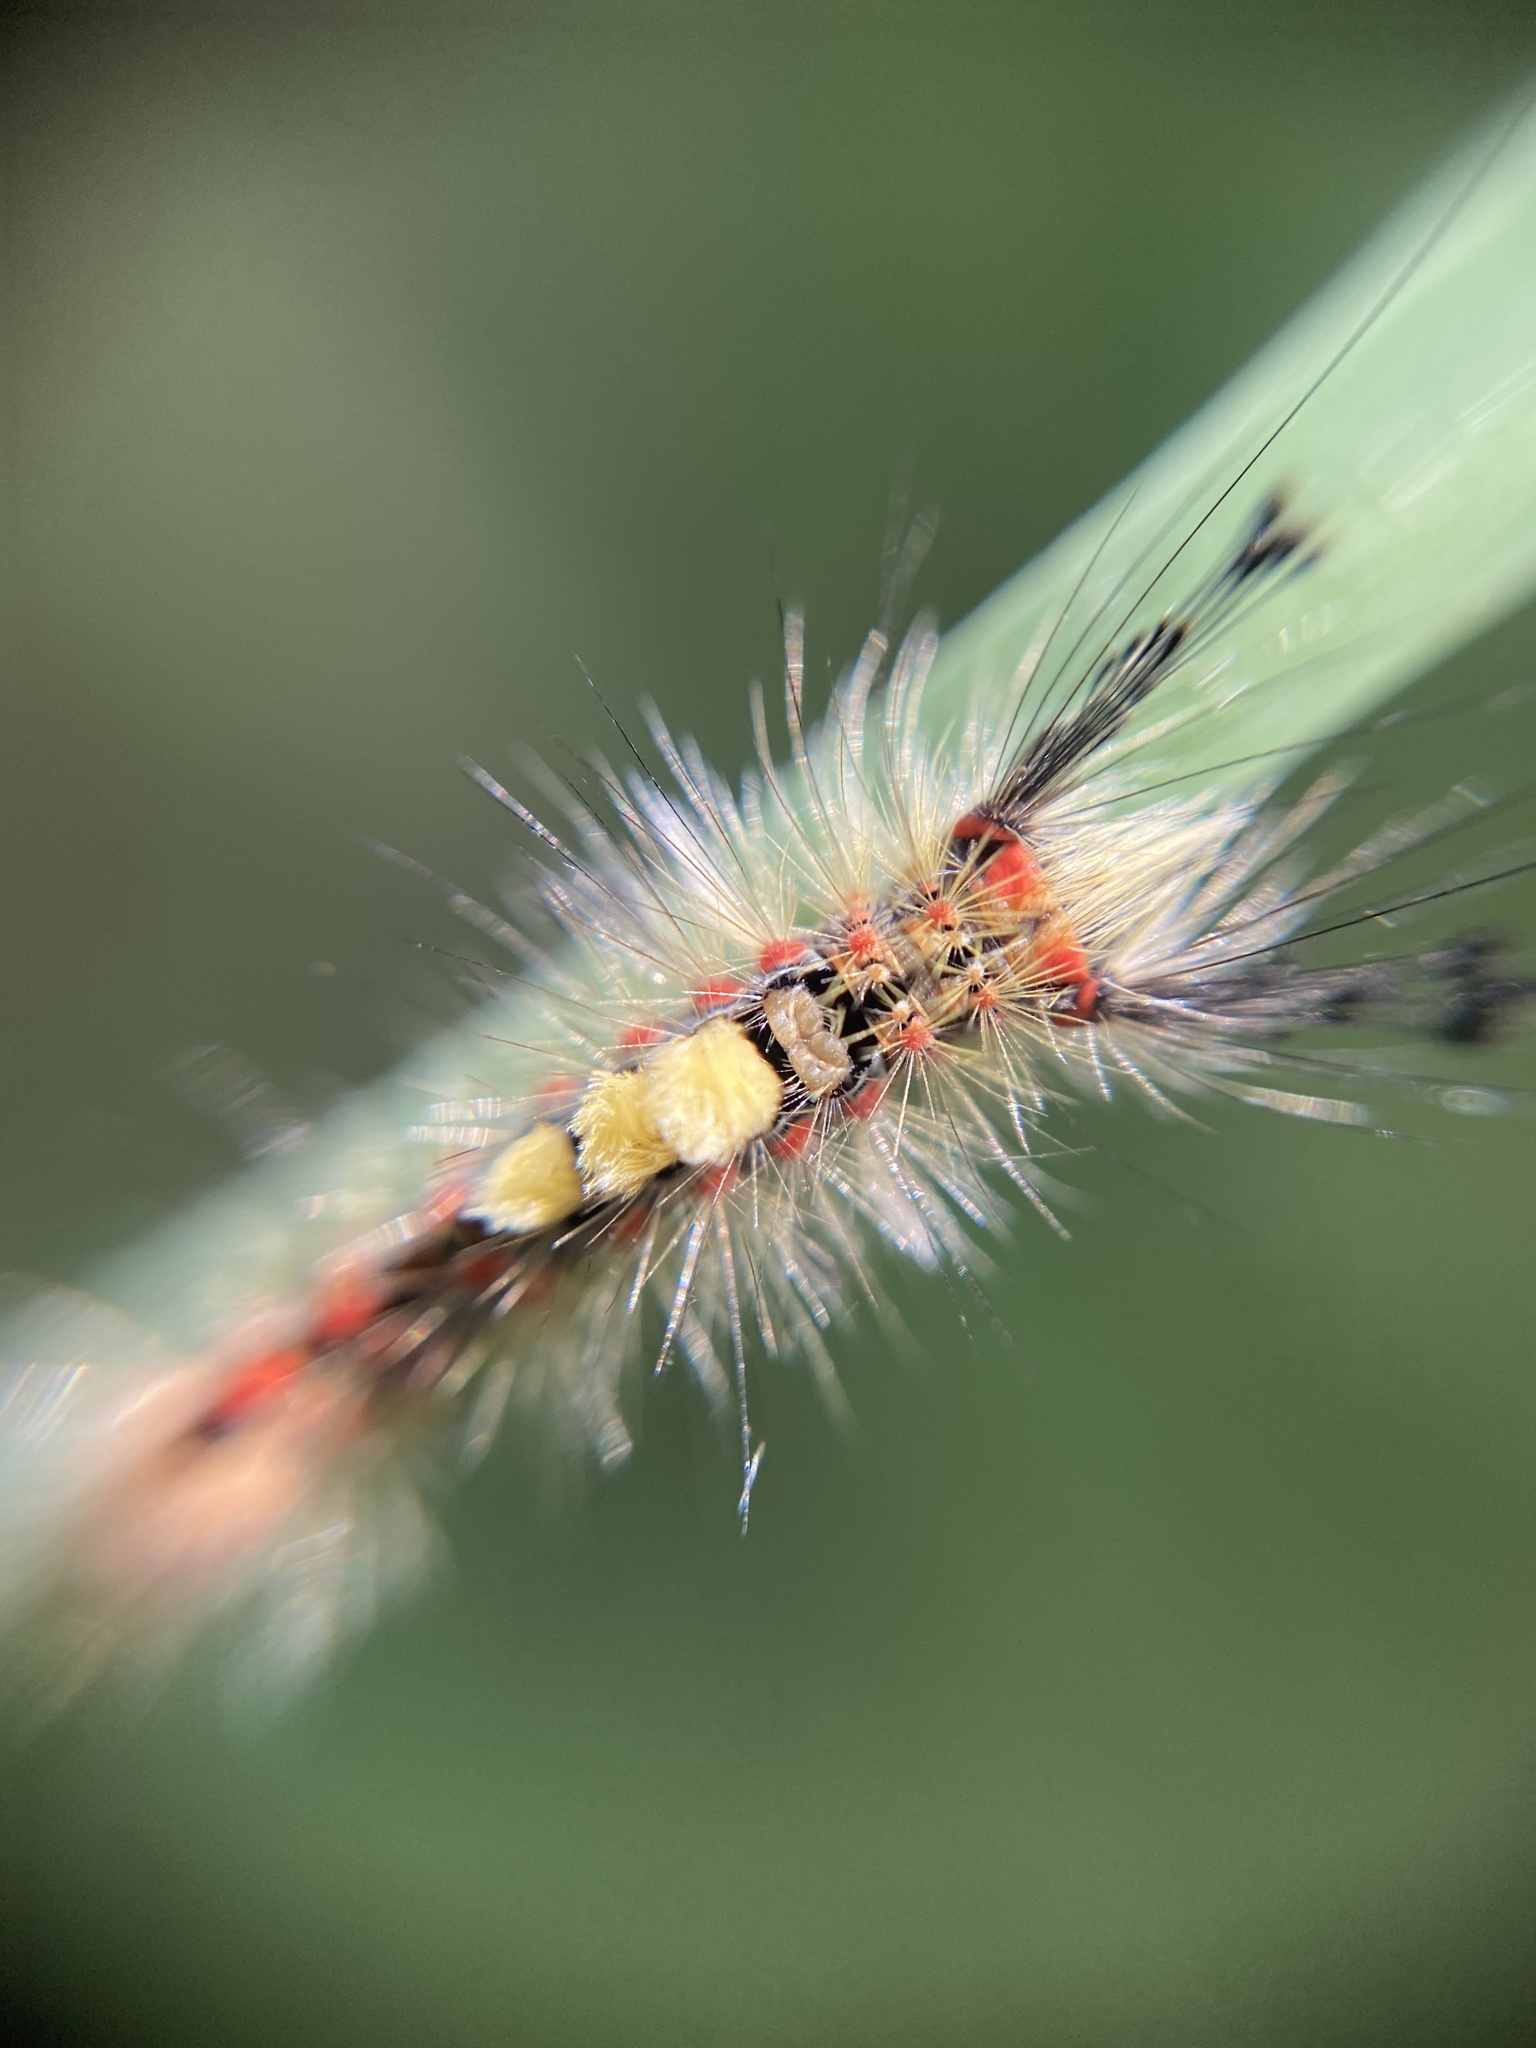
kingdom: Animalia
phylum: Arthropoda
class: Insecta
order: Lepidoptera
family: Erebidae
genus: Orgyia
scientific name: Orgyia antiqua
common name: Vapourer
